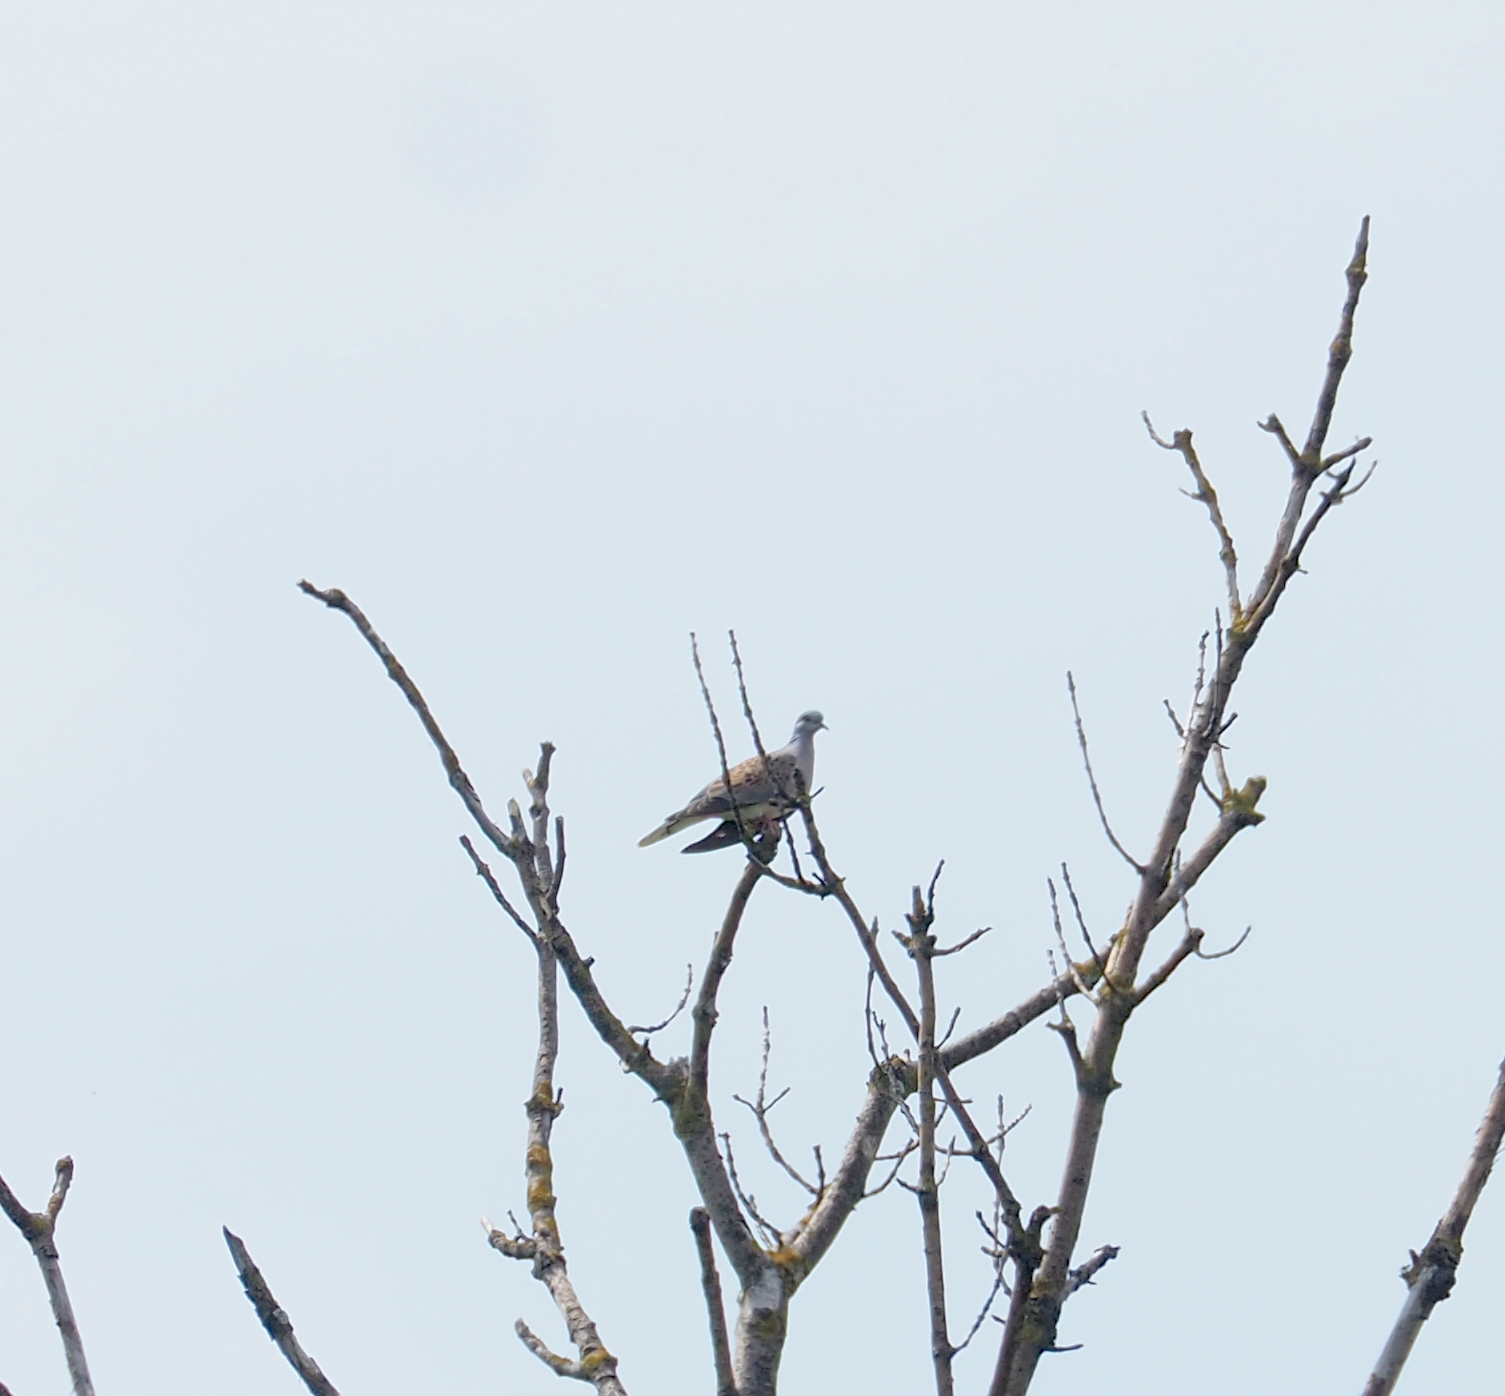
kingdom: Animalia
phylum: Chordata
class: Aves
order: Columbiformes
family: Columbidae
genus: Streptopelia
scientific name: Streptopelia turtur
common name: European turtle dove
